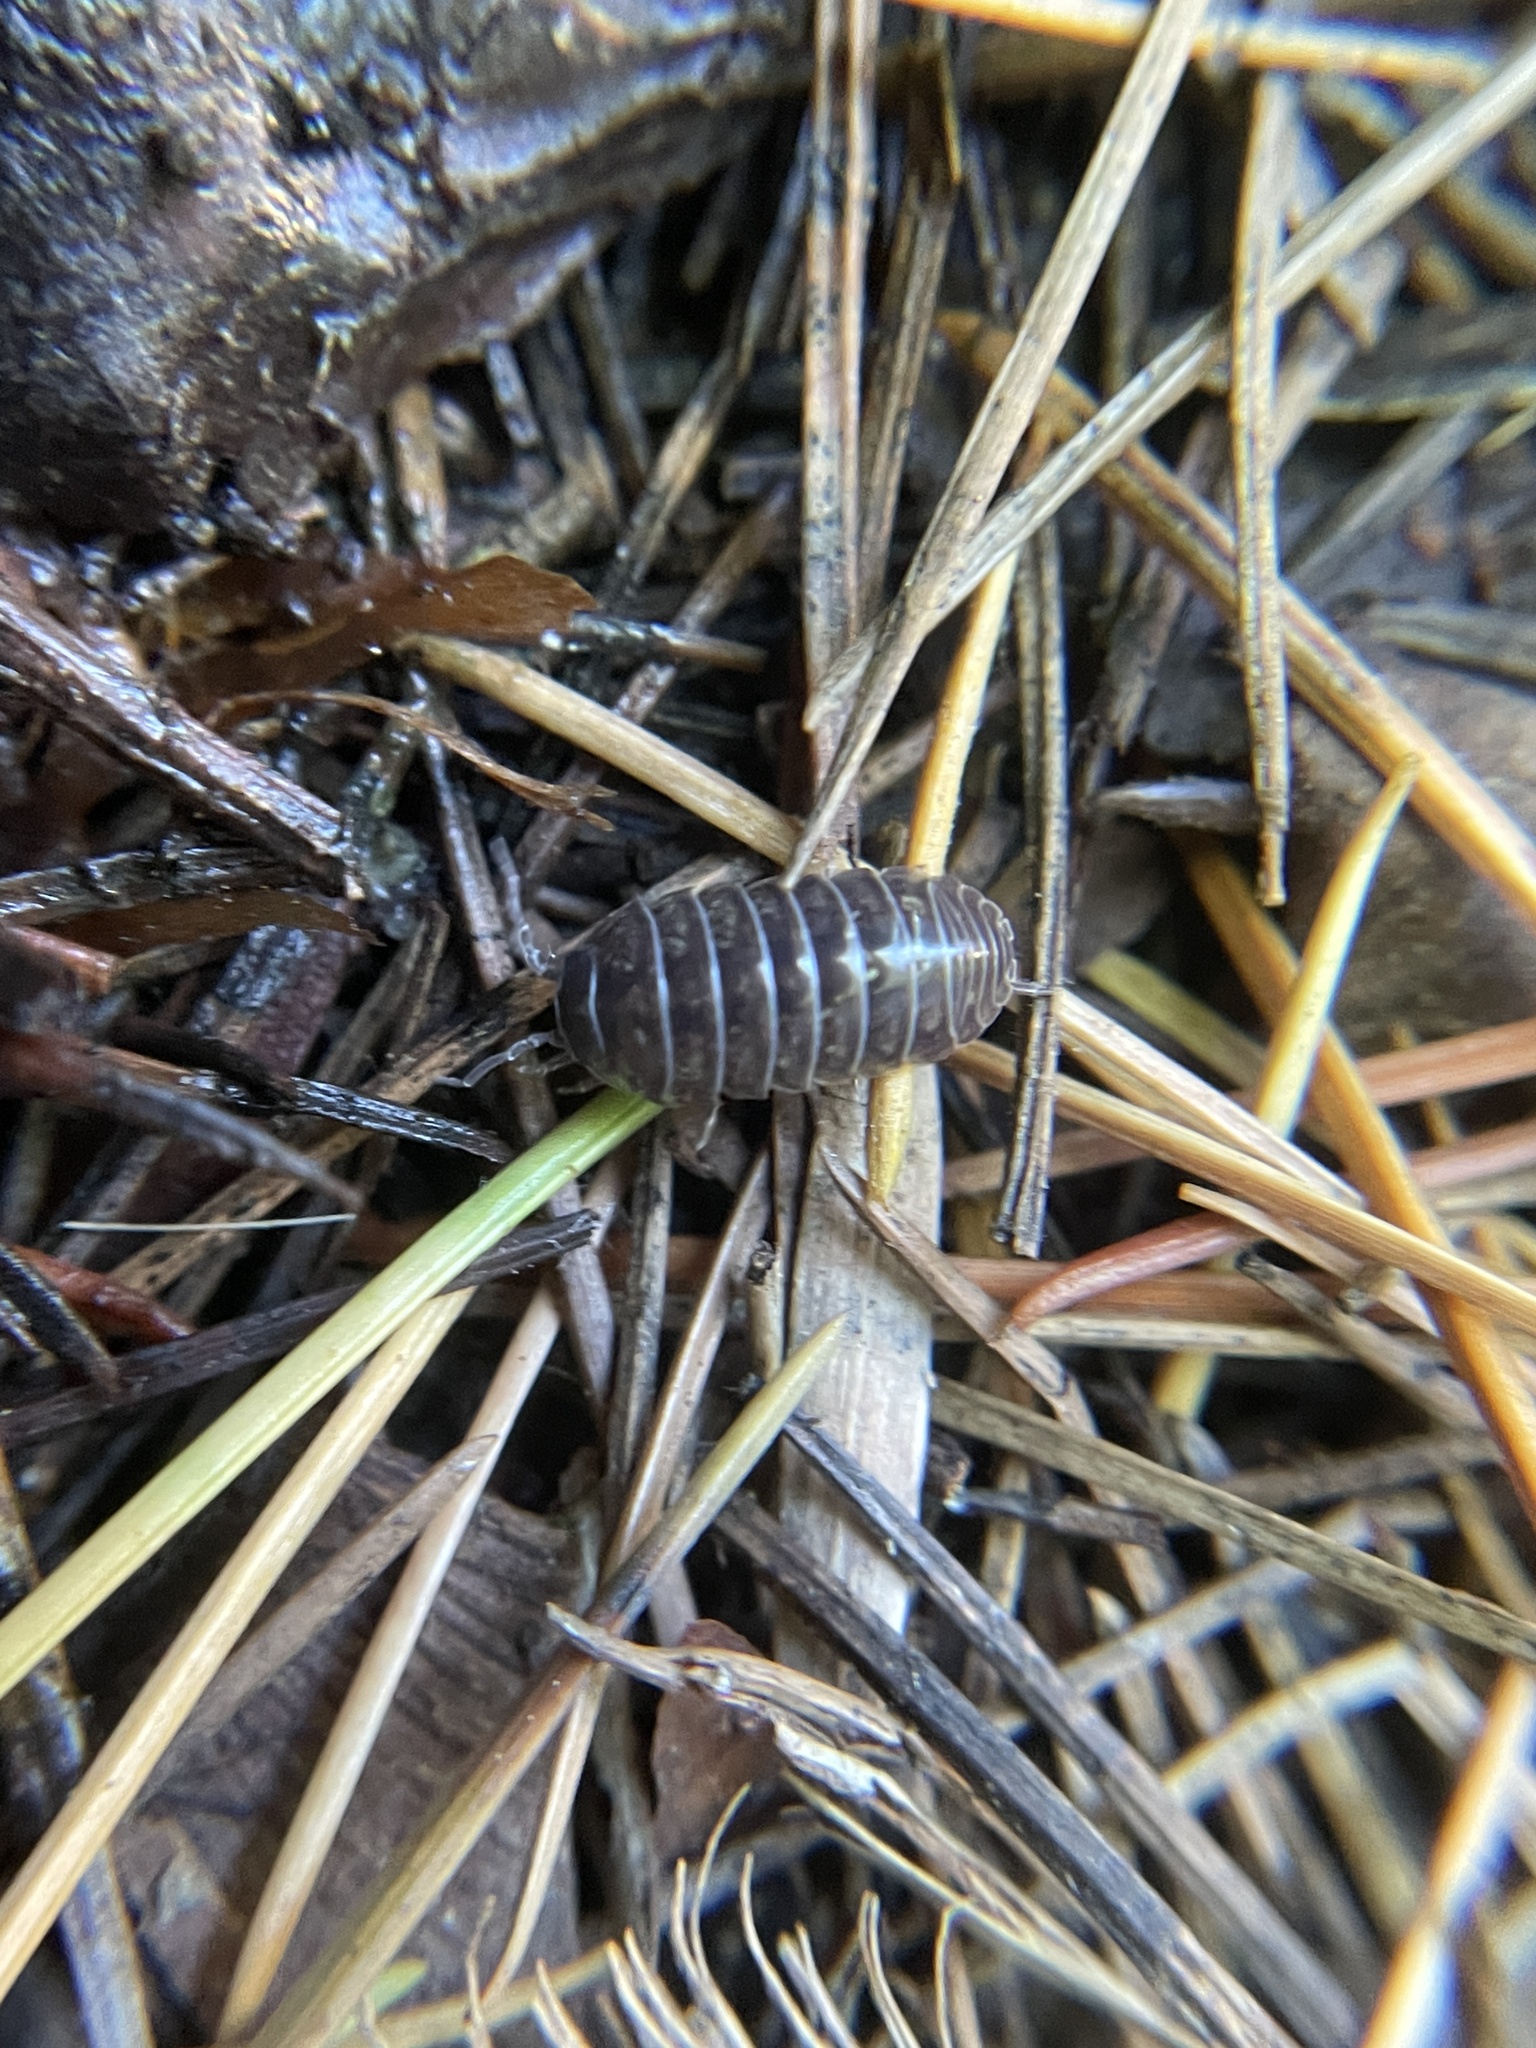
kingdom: Animalia
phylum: Arthropoda
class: Malacostraca
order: Isopoda
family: Armadillidiidae
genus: Armadillidium
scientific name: Armadillidium vulgare
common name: Common pill woodlouse
